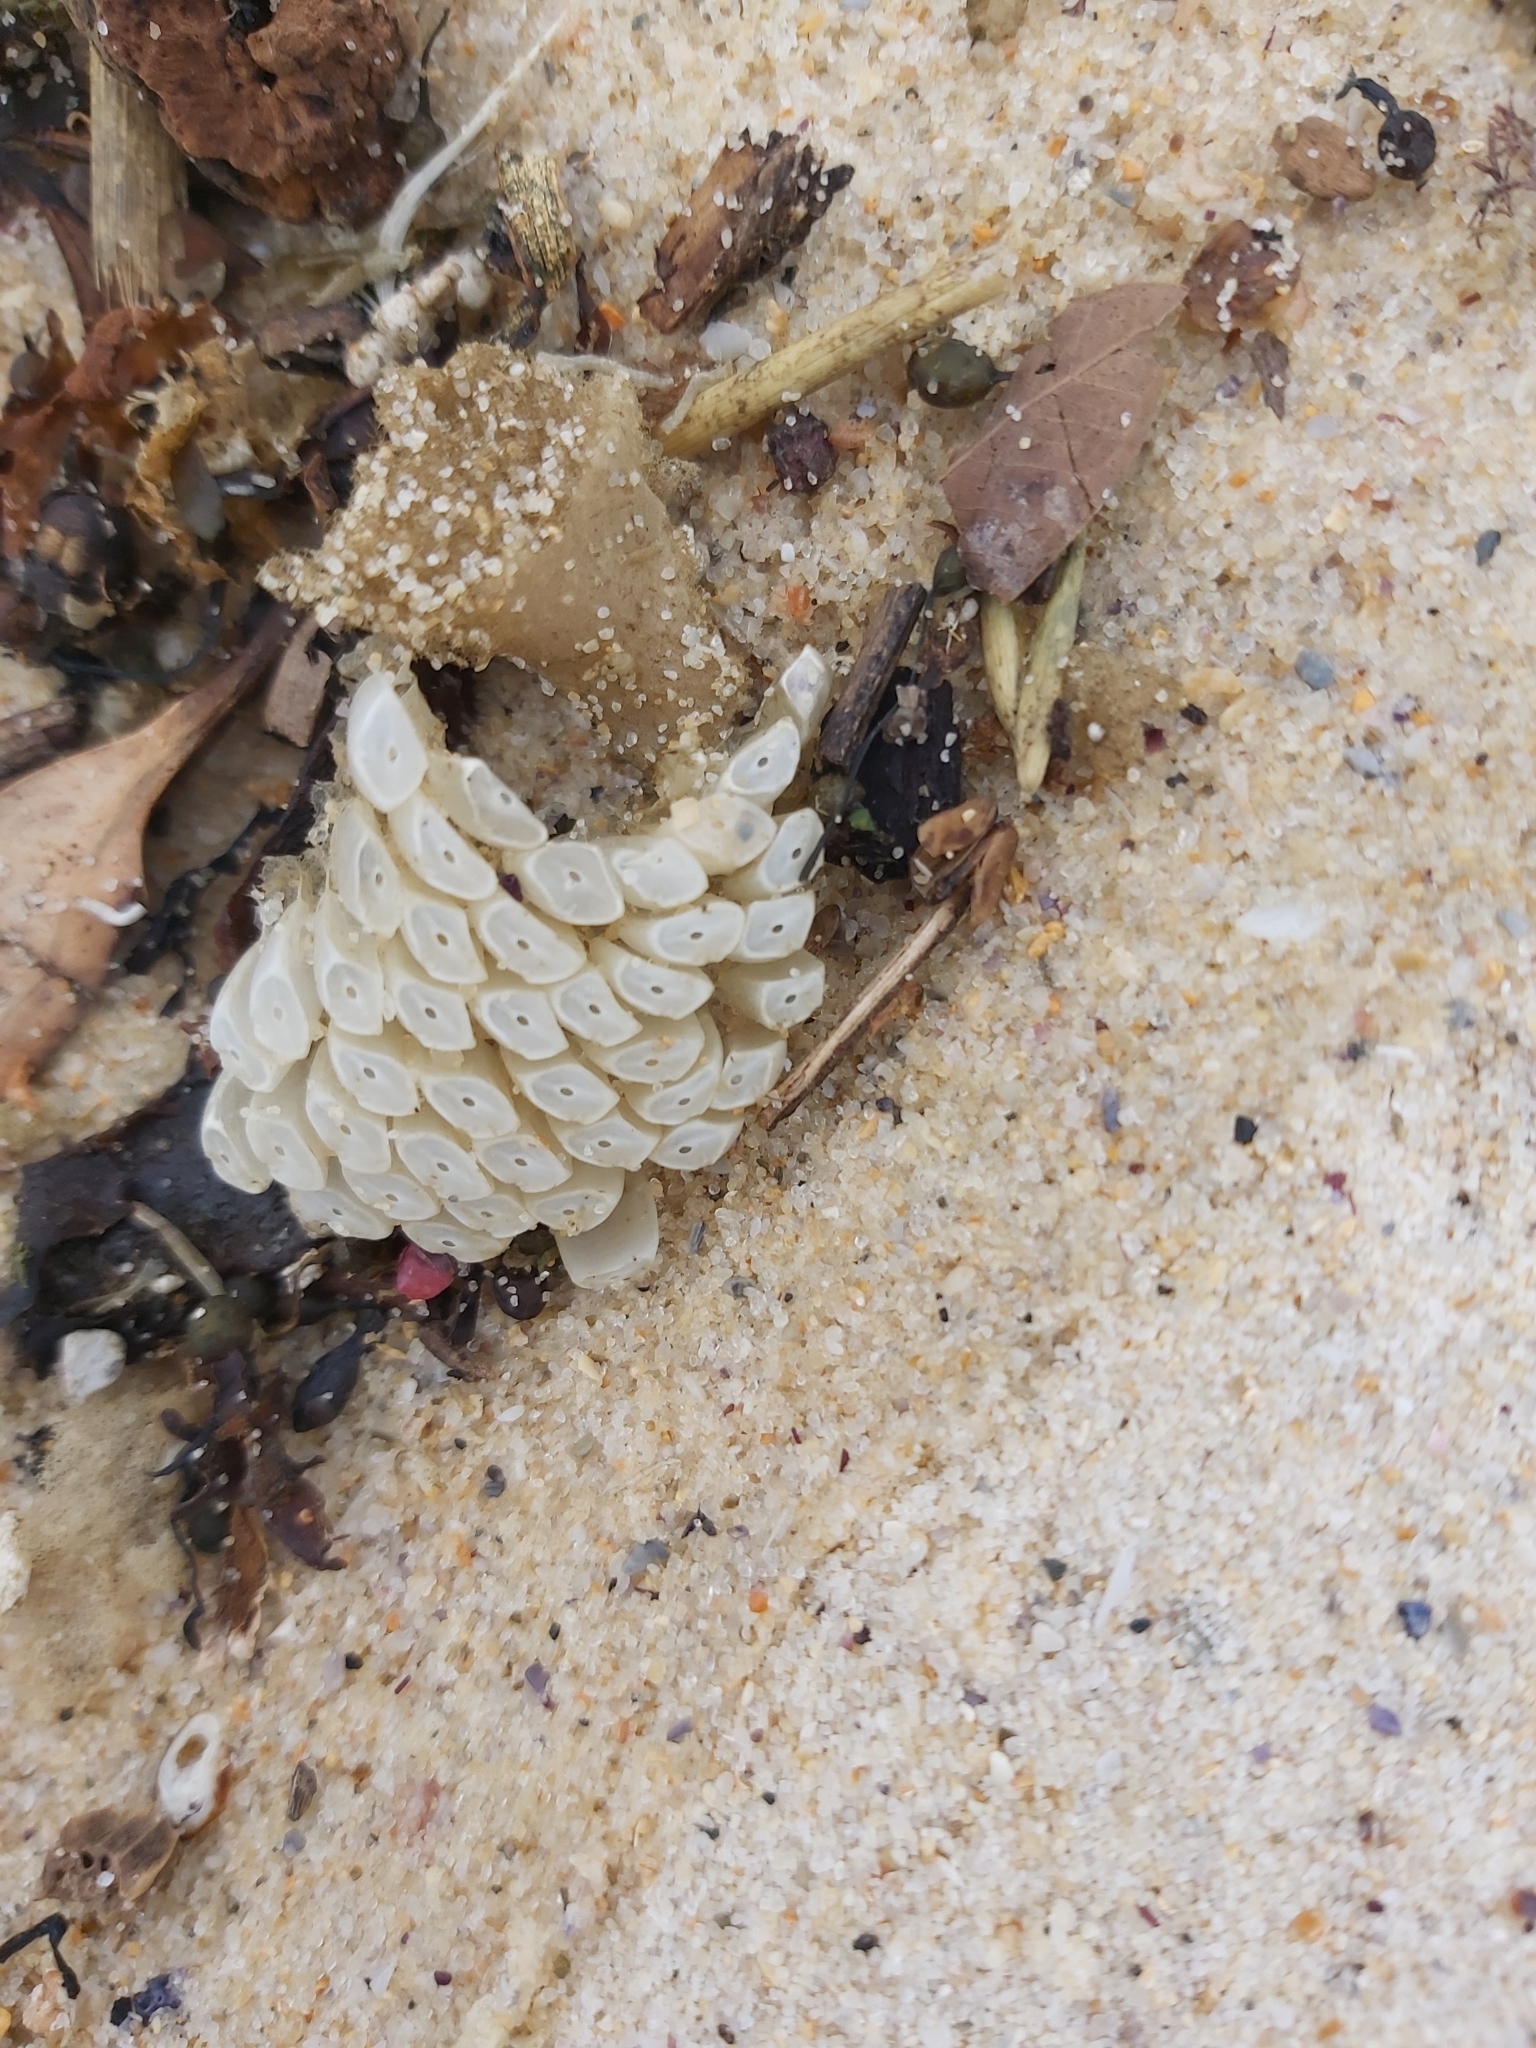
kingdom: Animalia
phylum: Mollusca
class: Gastropoda
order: Neogastropoda
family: Muricidae
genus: Dicathais
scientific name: Dicathais orbita
